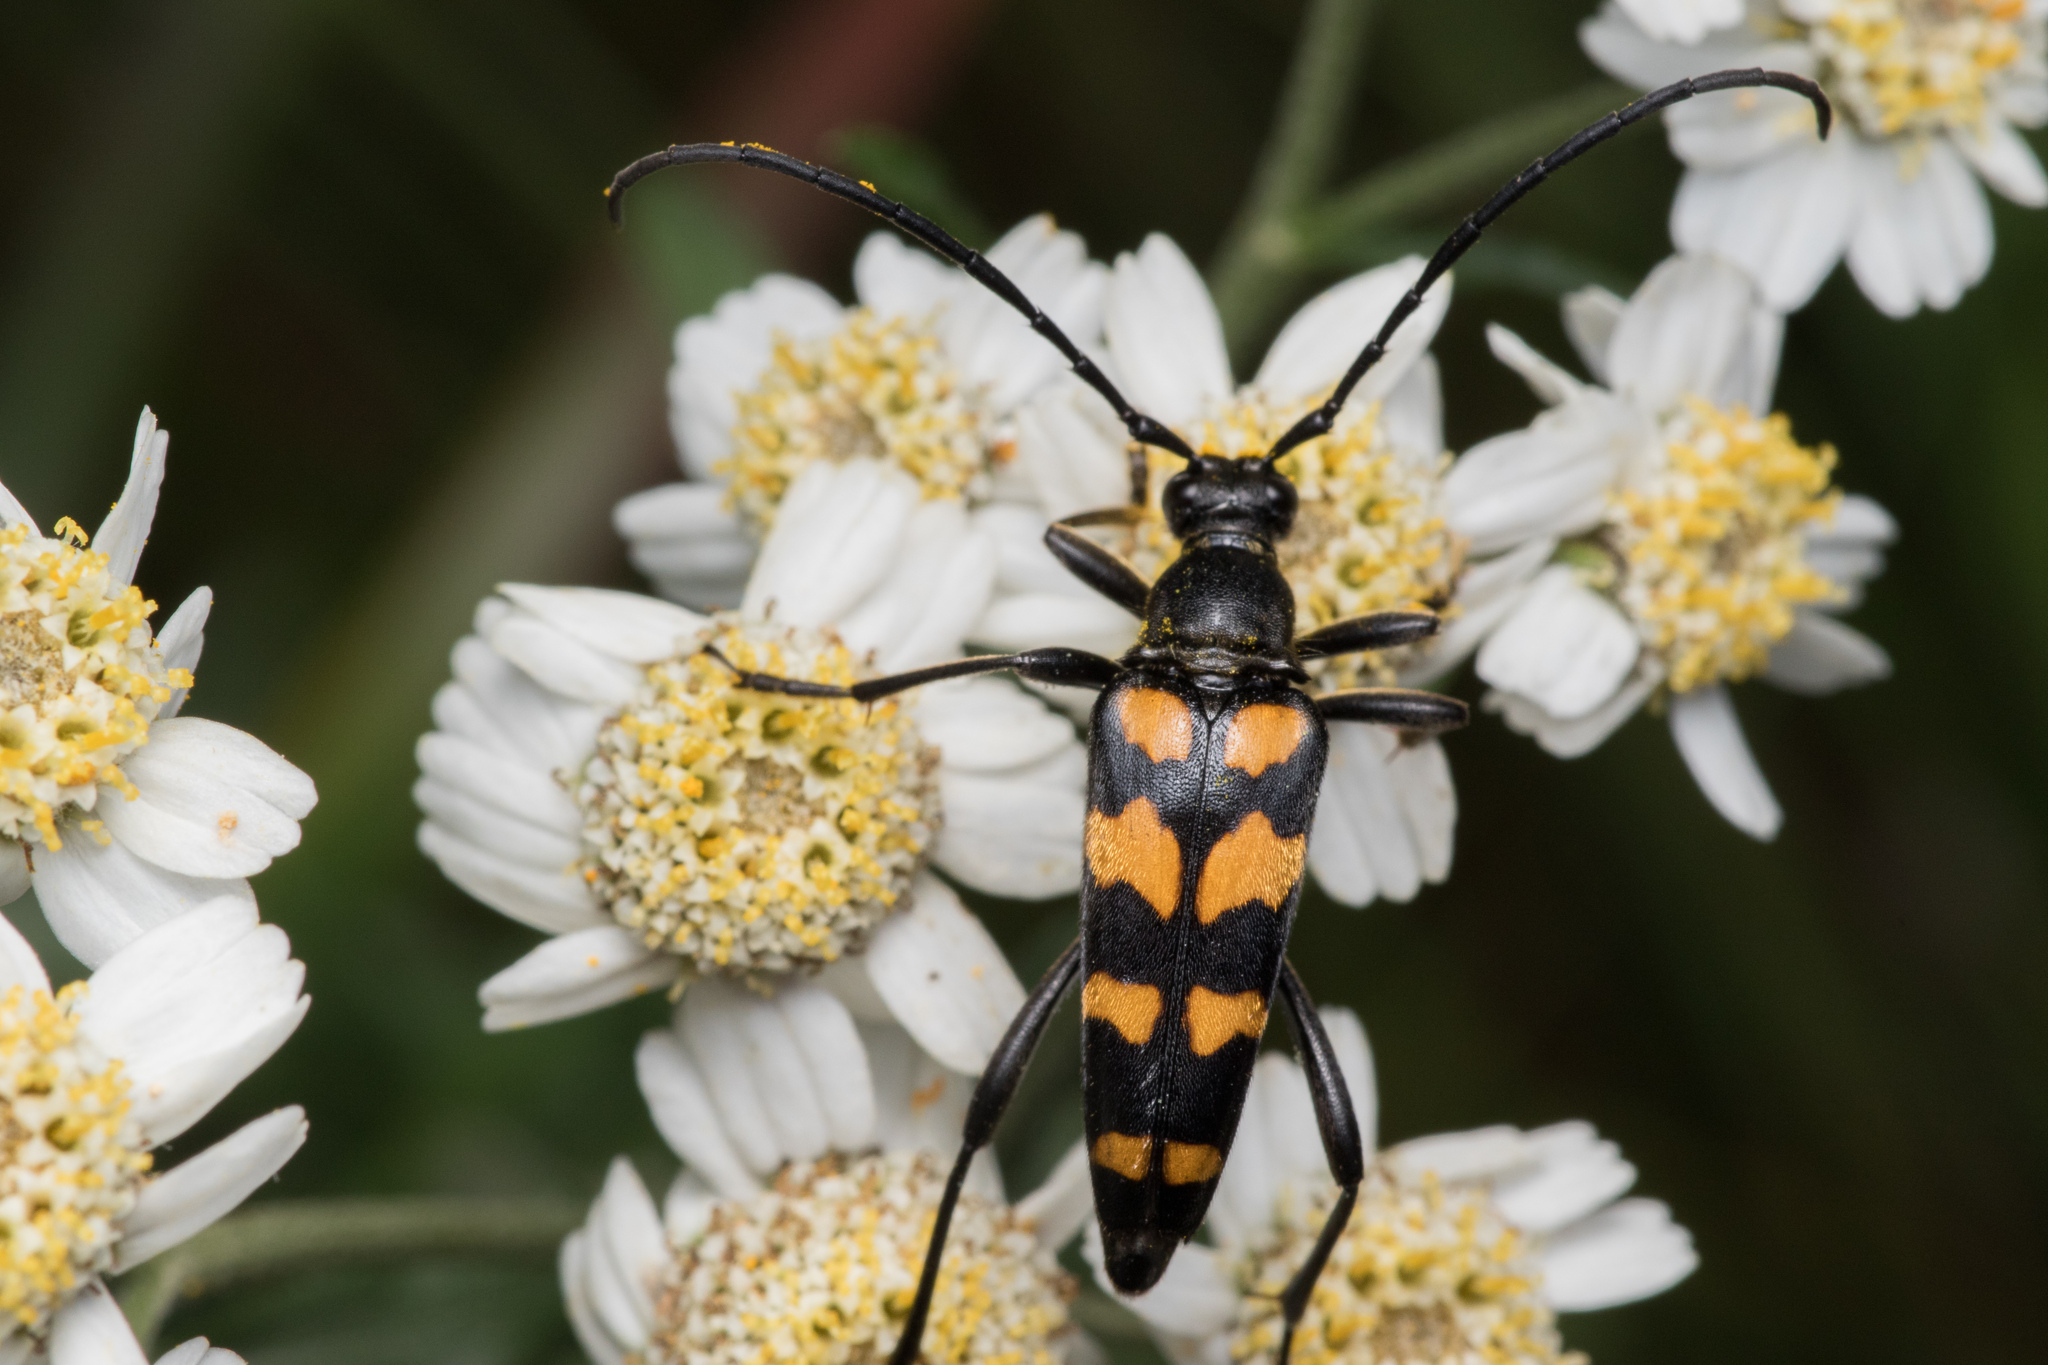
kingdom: Animalia
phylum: Arthropoda
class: Insecta
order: Coleoptera
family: Cerambycidae
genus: Leptura
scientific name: Leptura quadrifasciata
